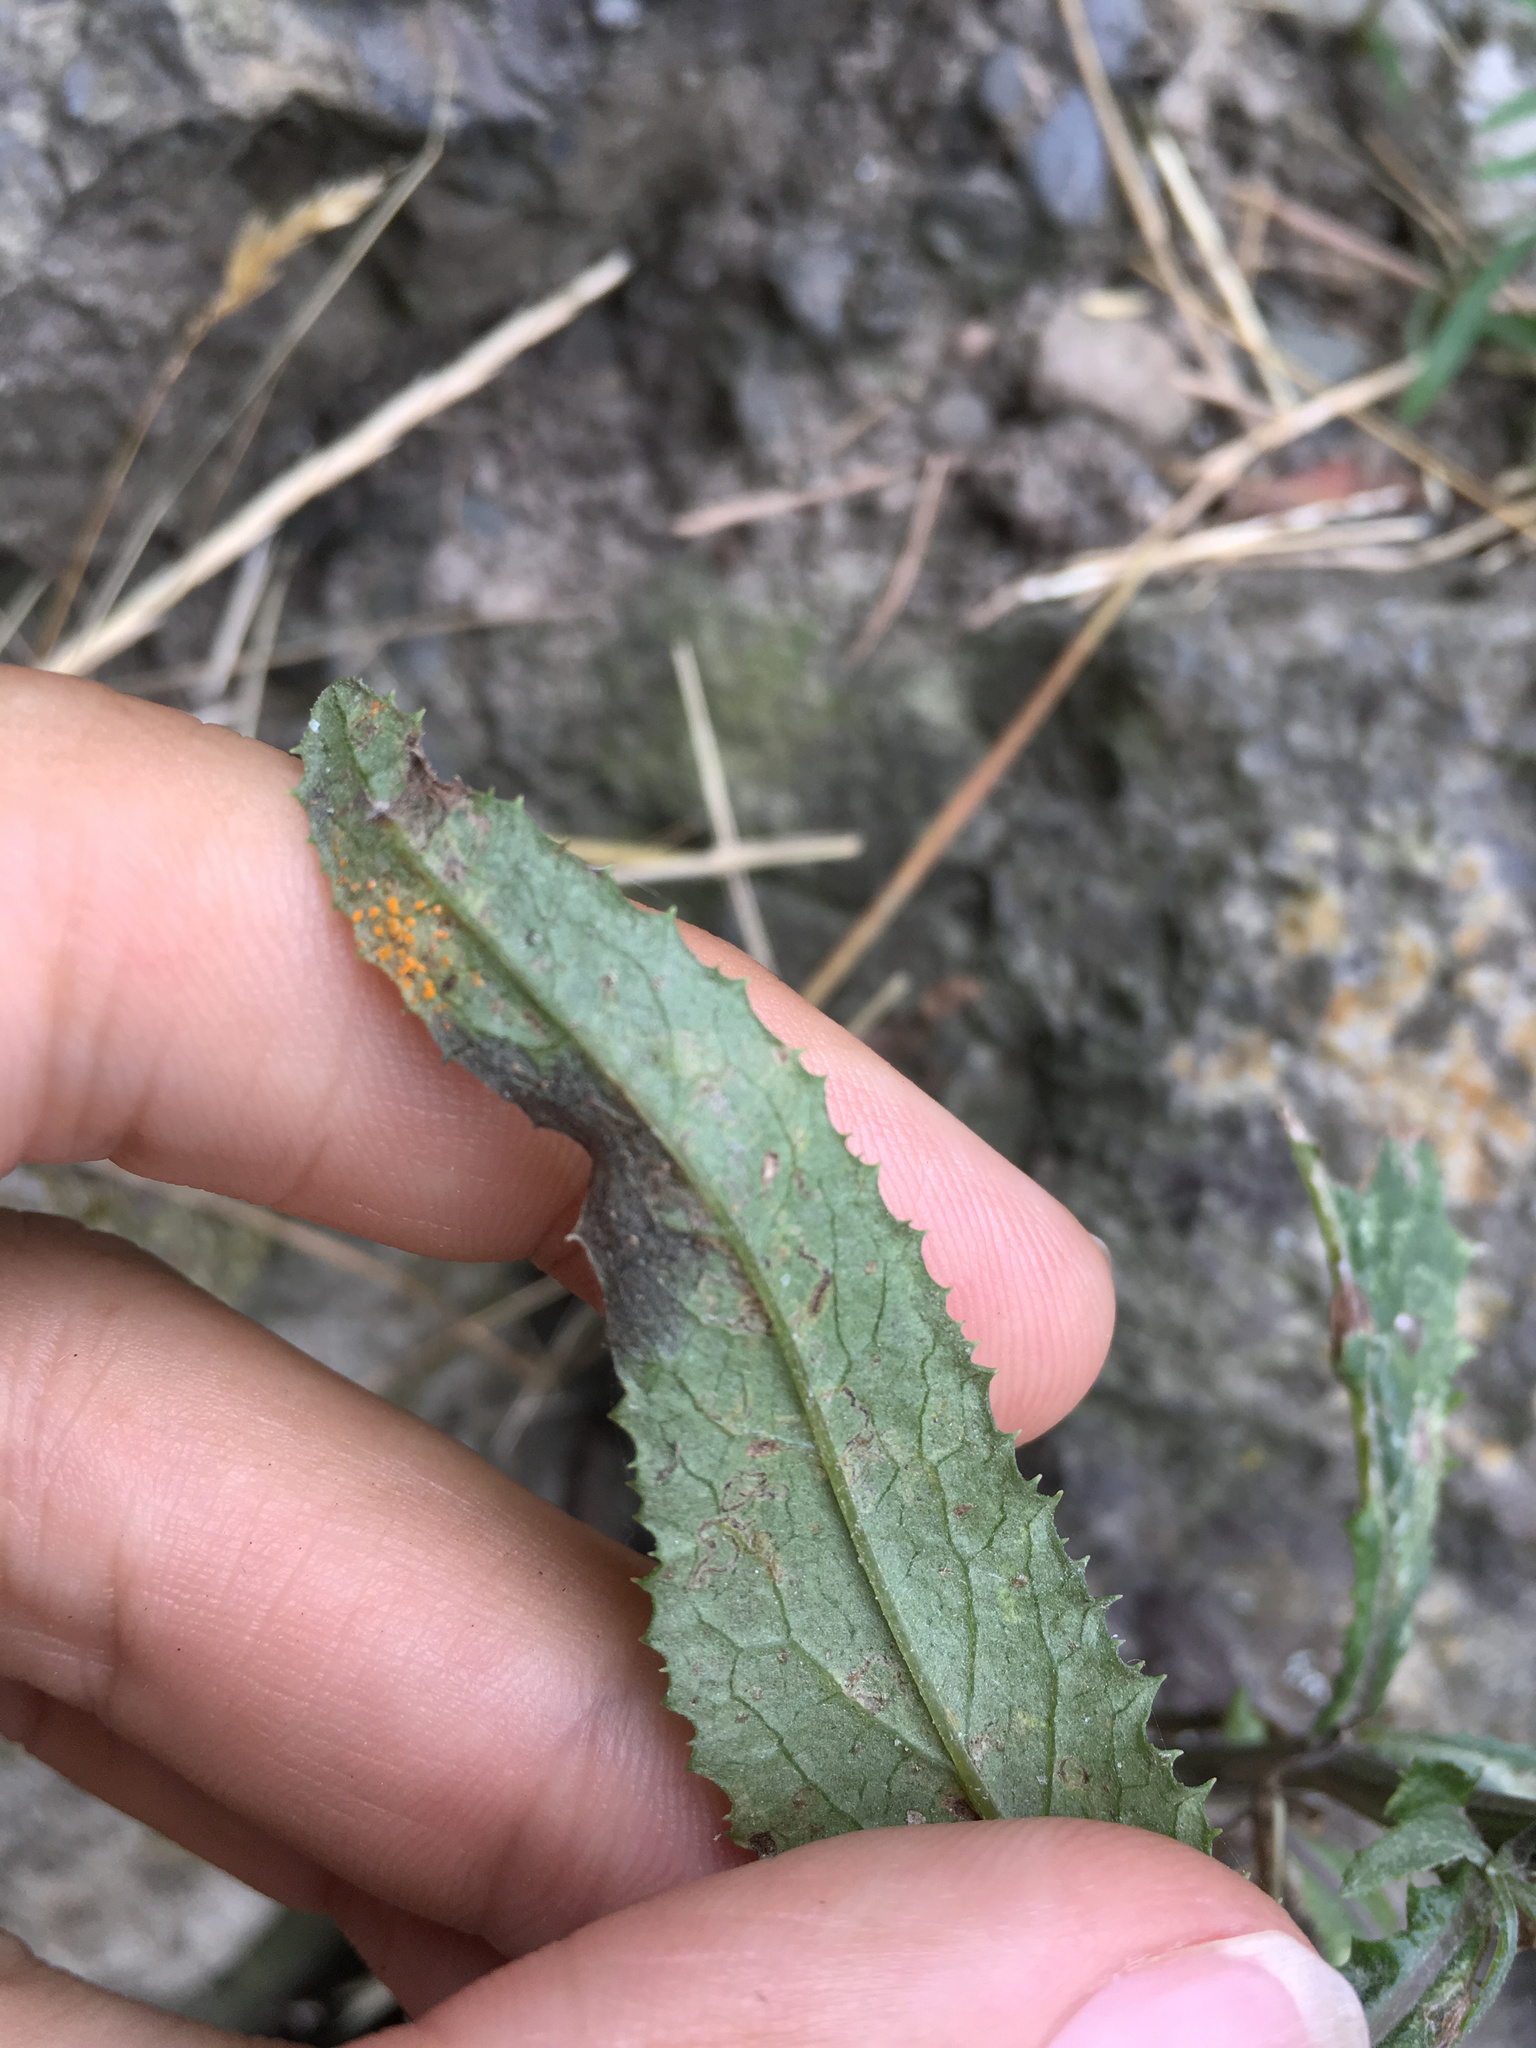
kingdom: Fungi
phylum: Basidiomycota
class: Pucciniomycetes
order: Pucciniales
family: Coleosporiaceae
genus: Coleosporium
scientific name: Coleosporium tussilaginis
